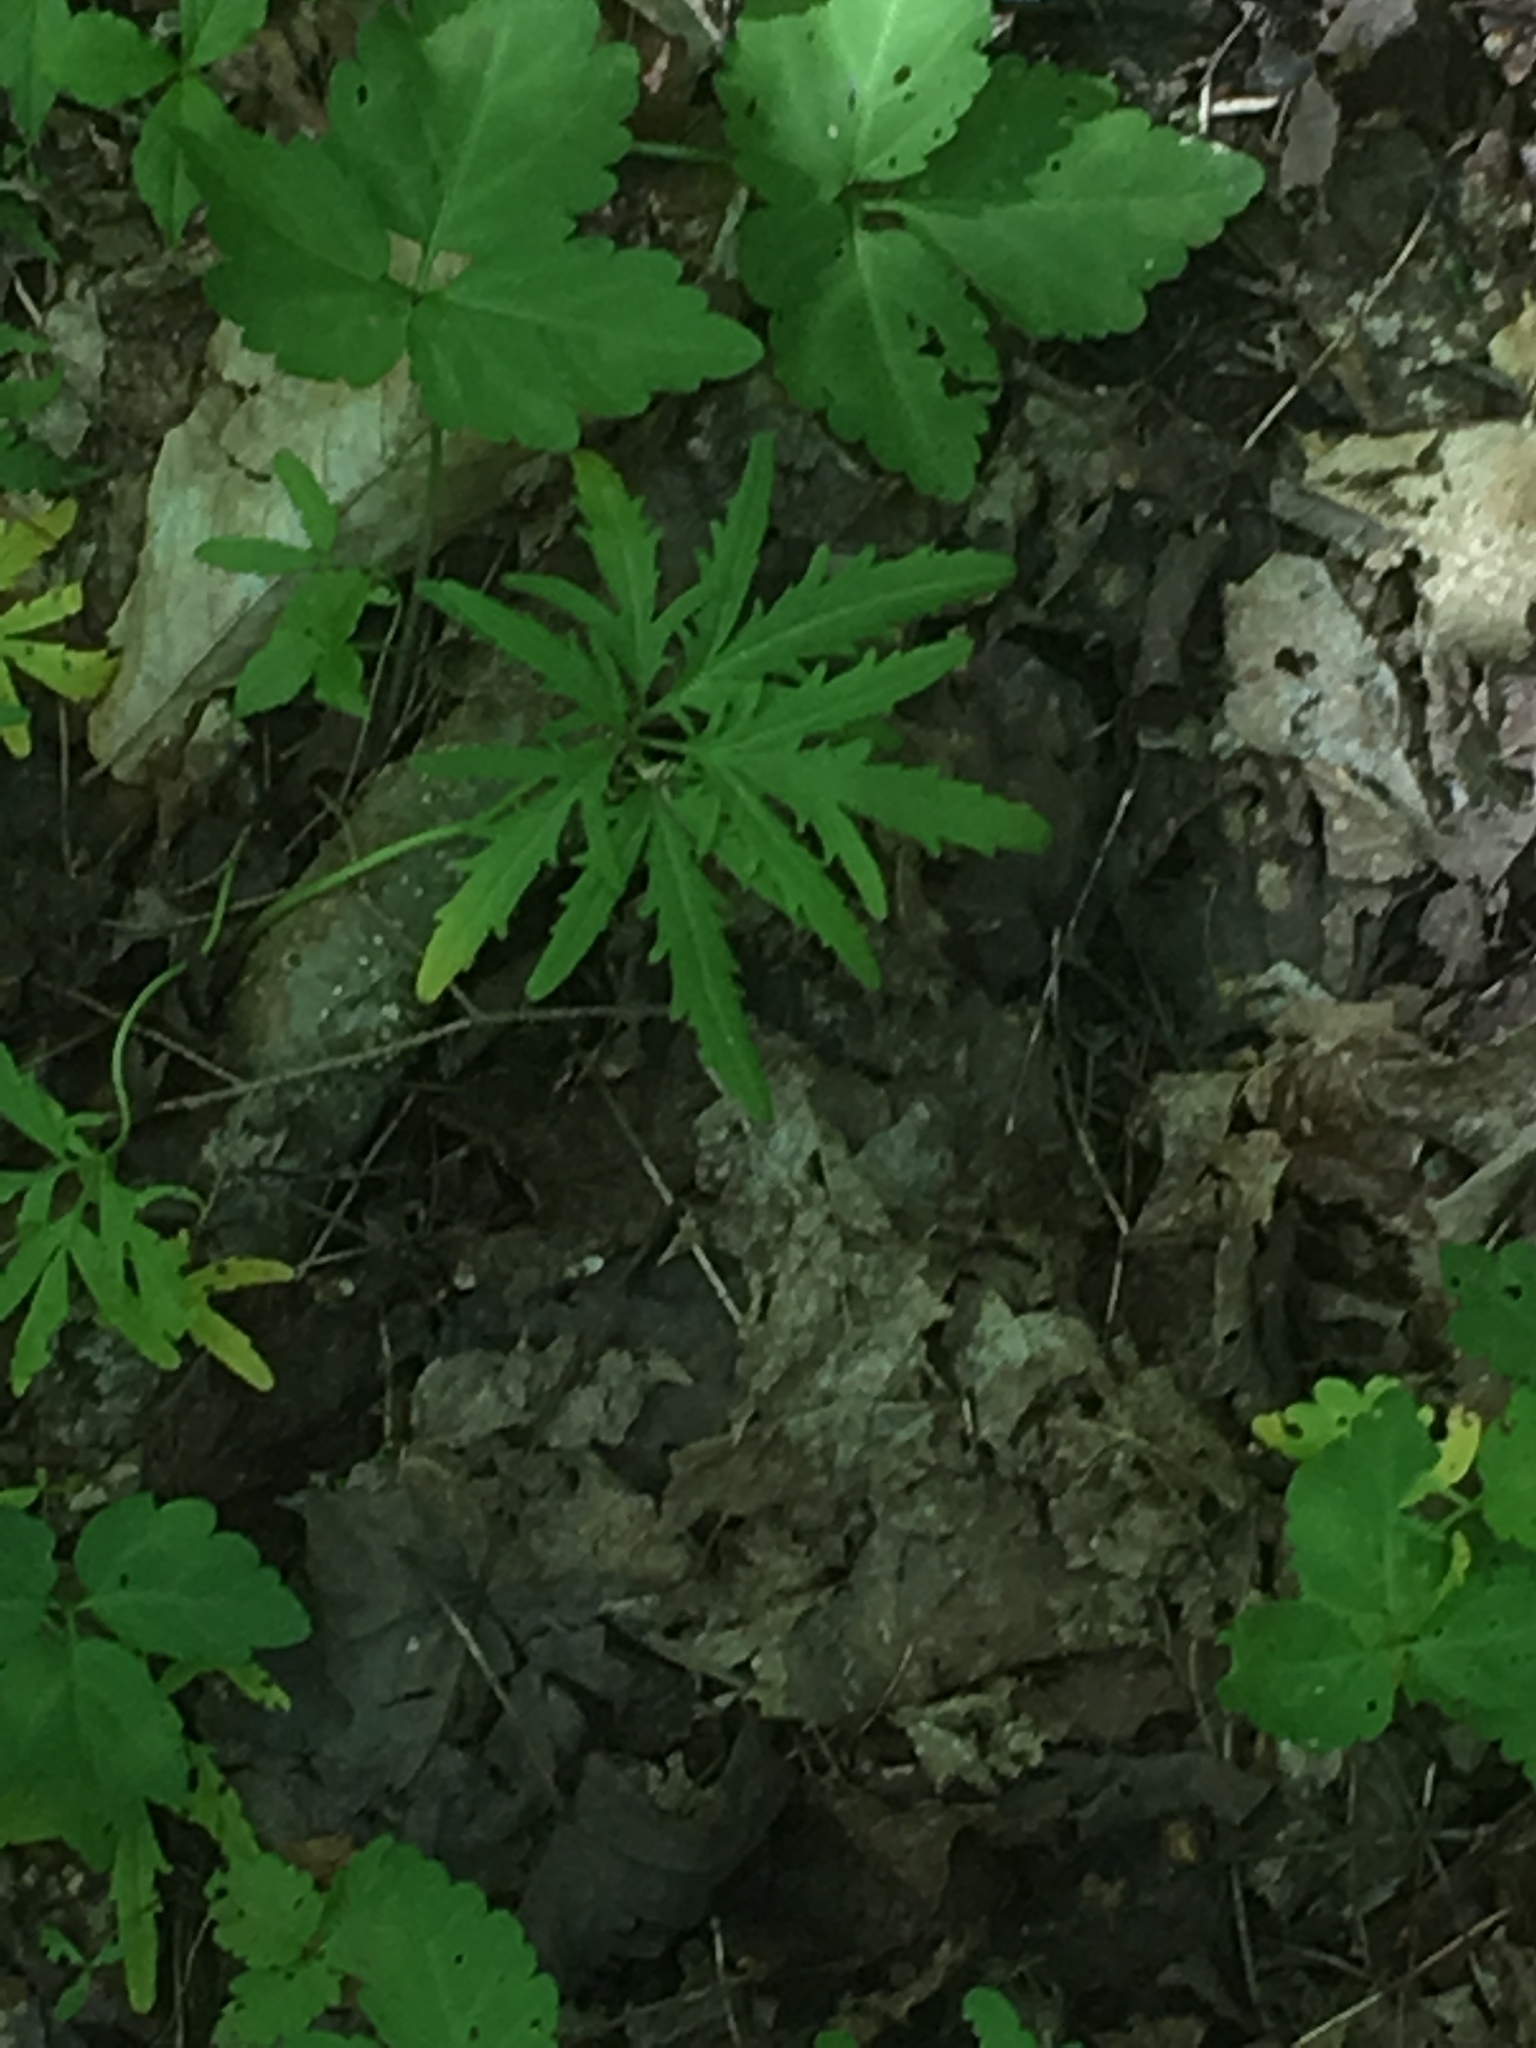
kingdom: Plantae
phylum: Tracheophyta
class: Magnoliopsida
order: Brassicales
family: Brassicaceae
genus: Cardamine
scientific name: Cardamine concatenata
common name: Cut-leaf toothcup
